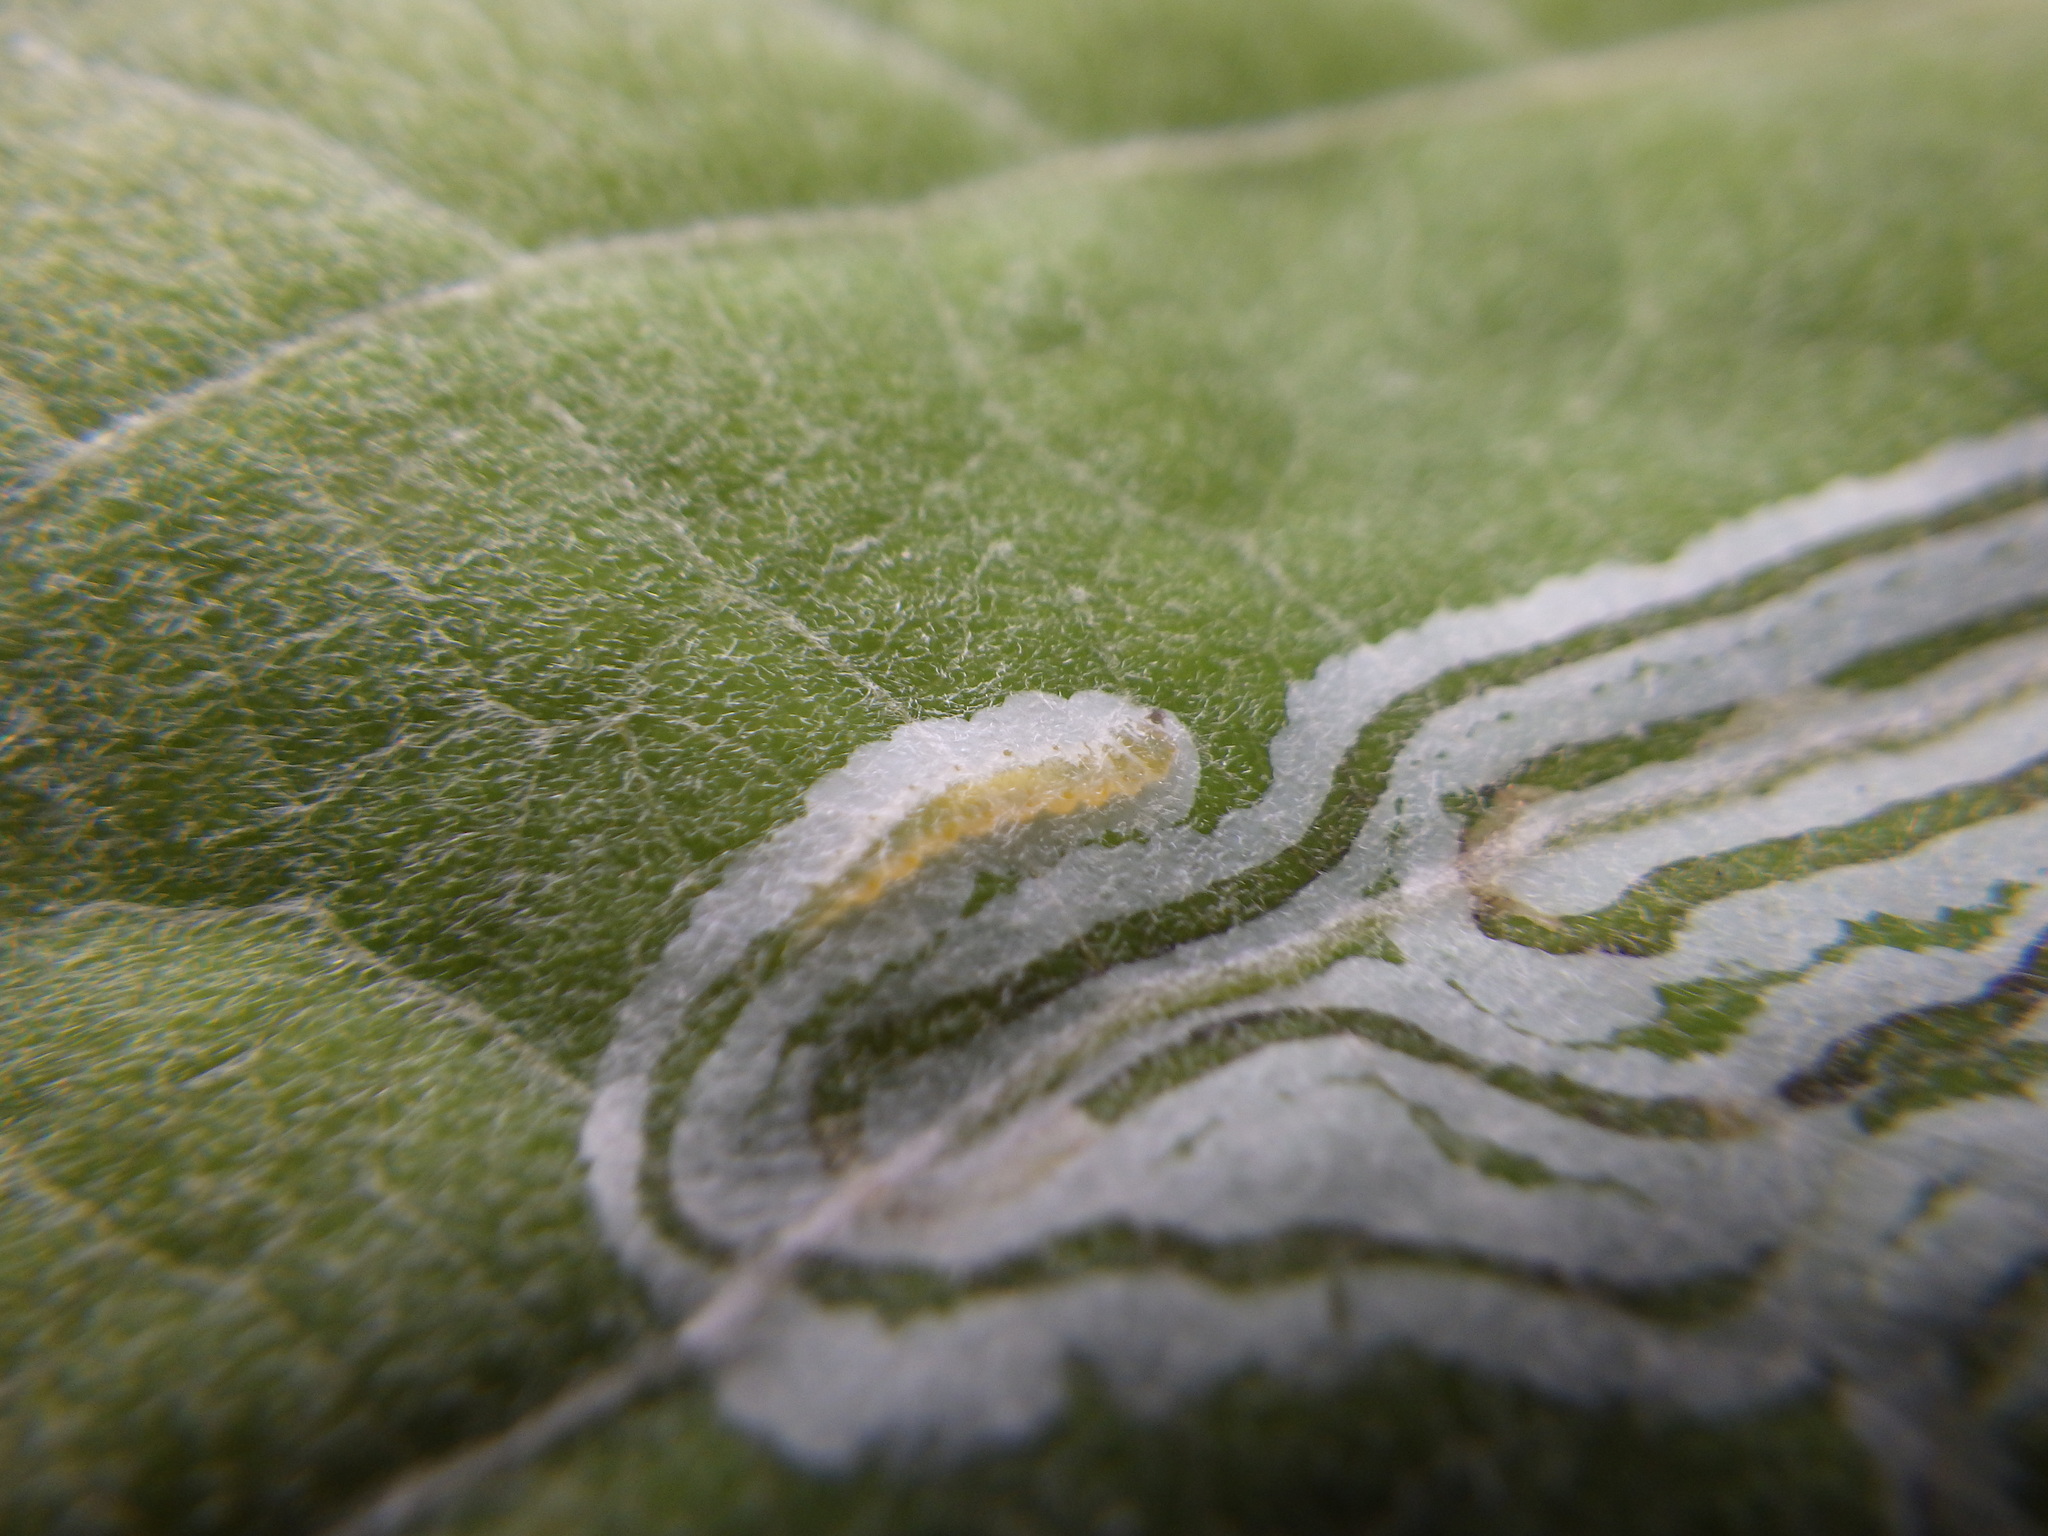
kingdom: Animalia
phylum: Arthropoda
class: Insecta
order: Lepidoptera
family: Gracillariidae
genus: Phyllocnistis
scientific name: Phyllocnistis populiella
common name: Aspen serpentine leafminer moth
